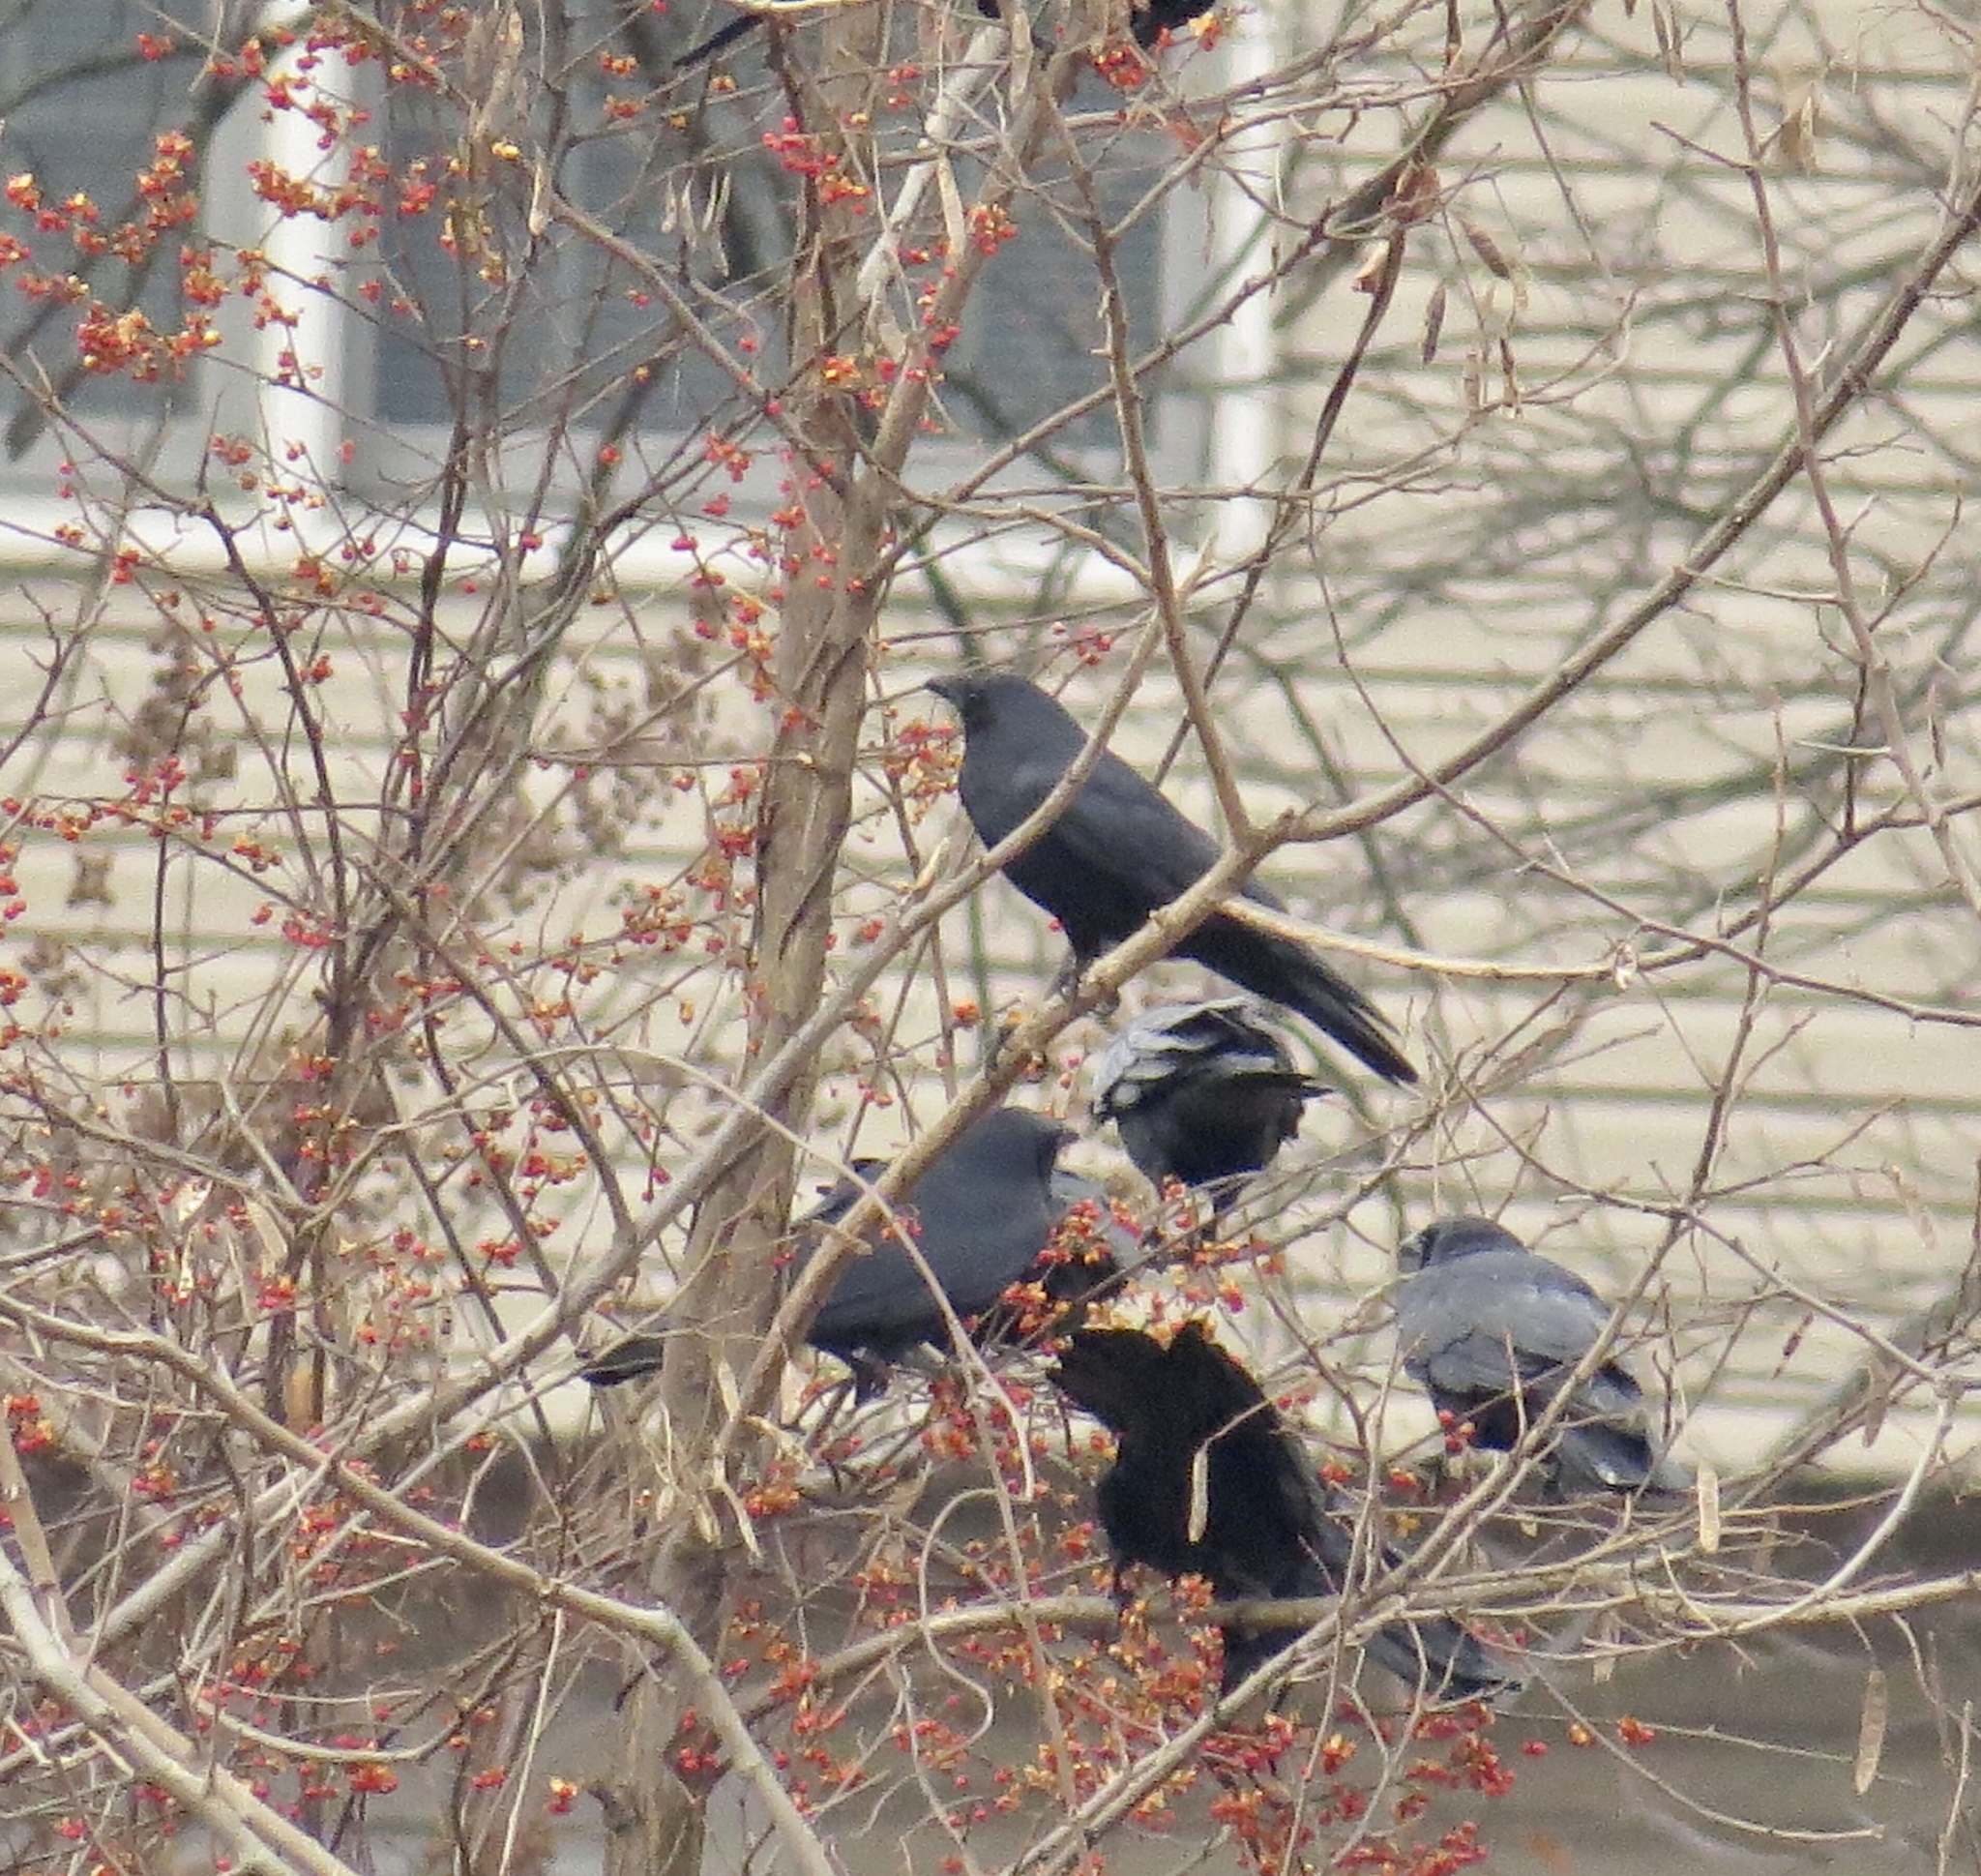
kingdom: Animalia
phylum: Chordata
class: Aves
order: Passeriformes
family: Corvidae
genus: Corvus
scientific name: Corvus brachyrhynchos
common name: American crow
